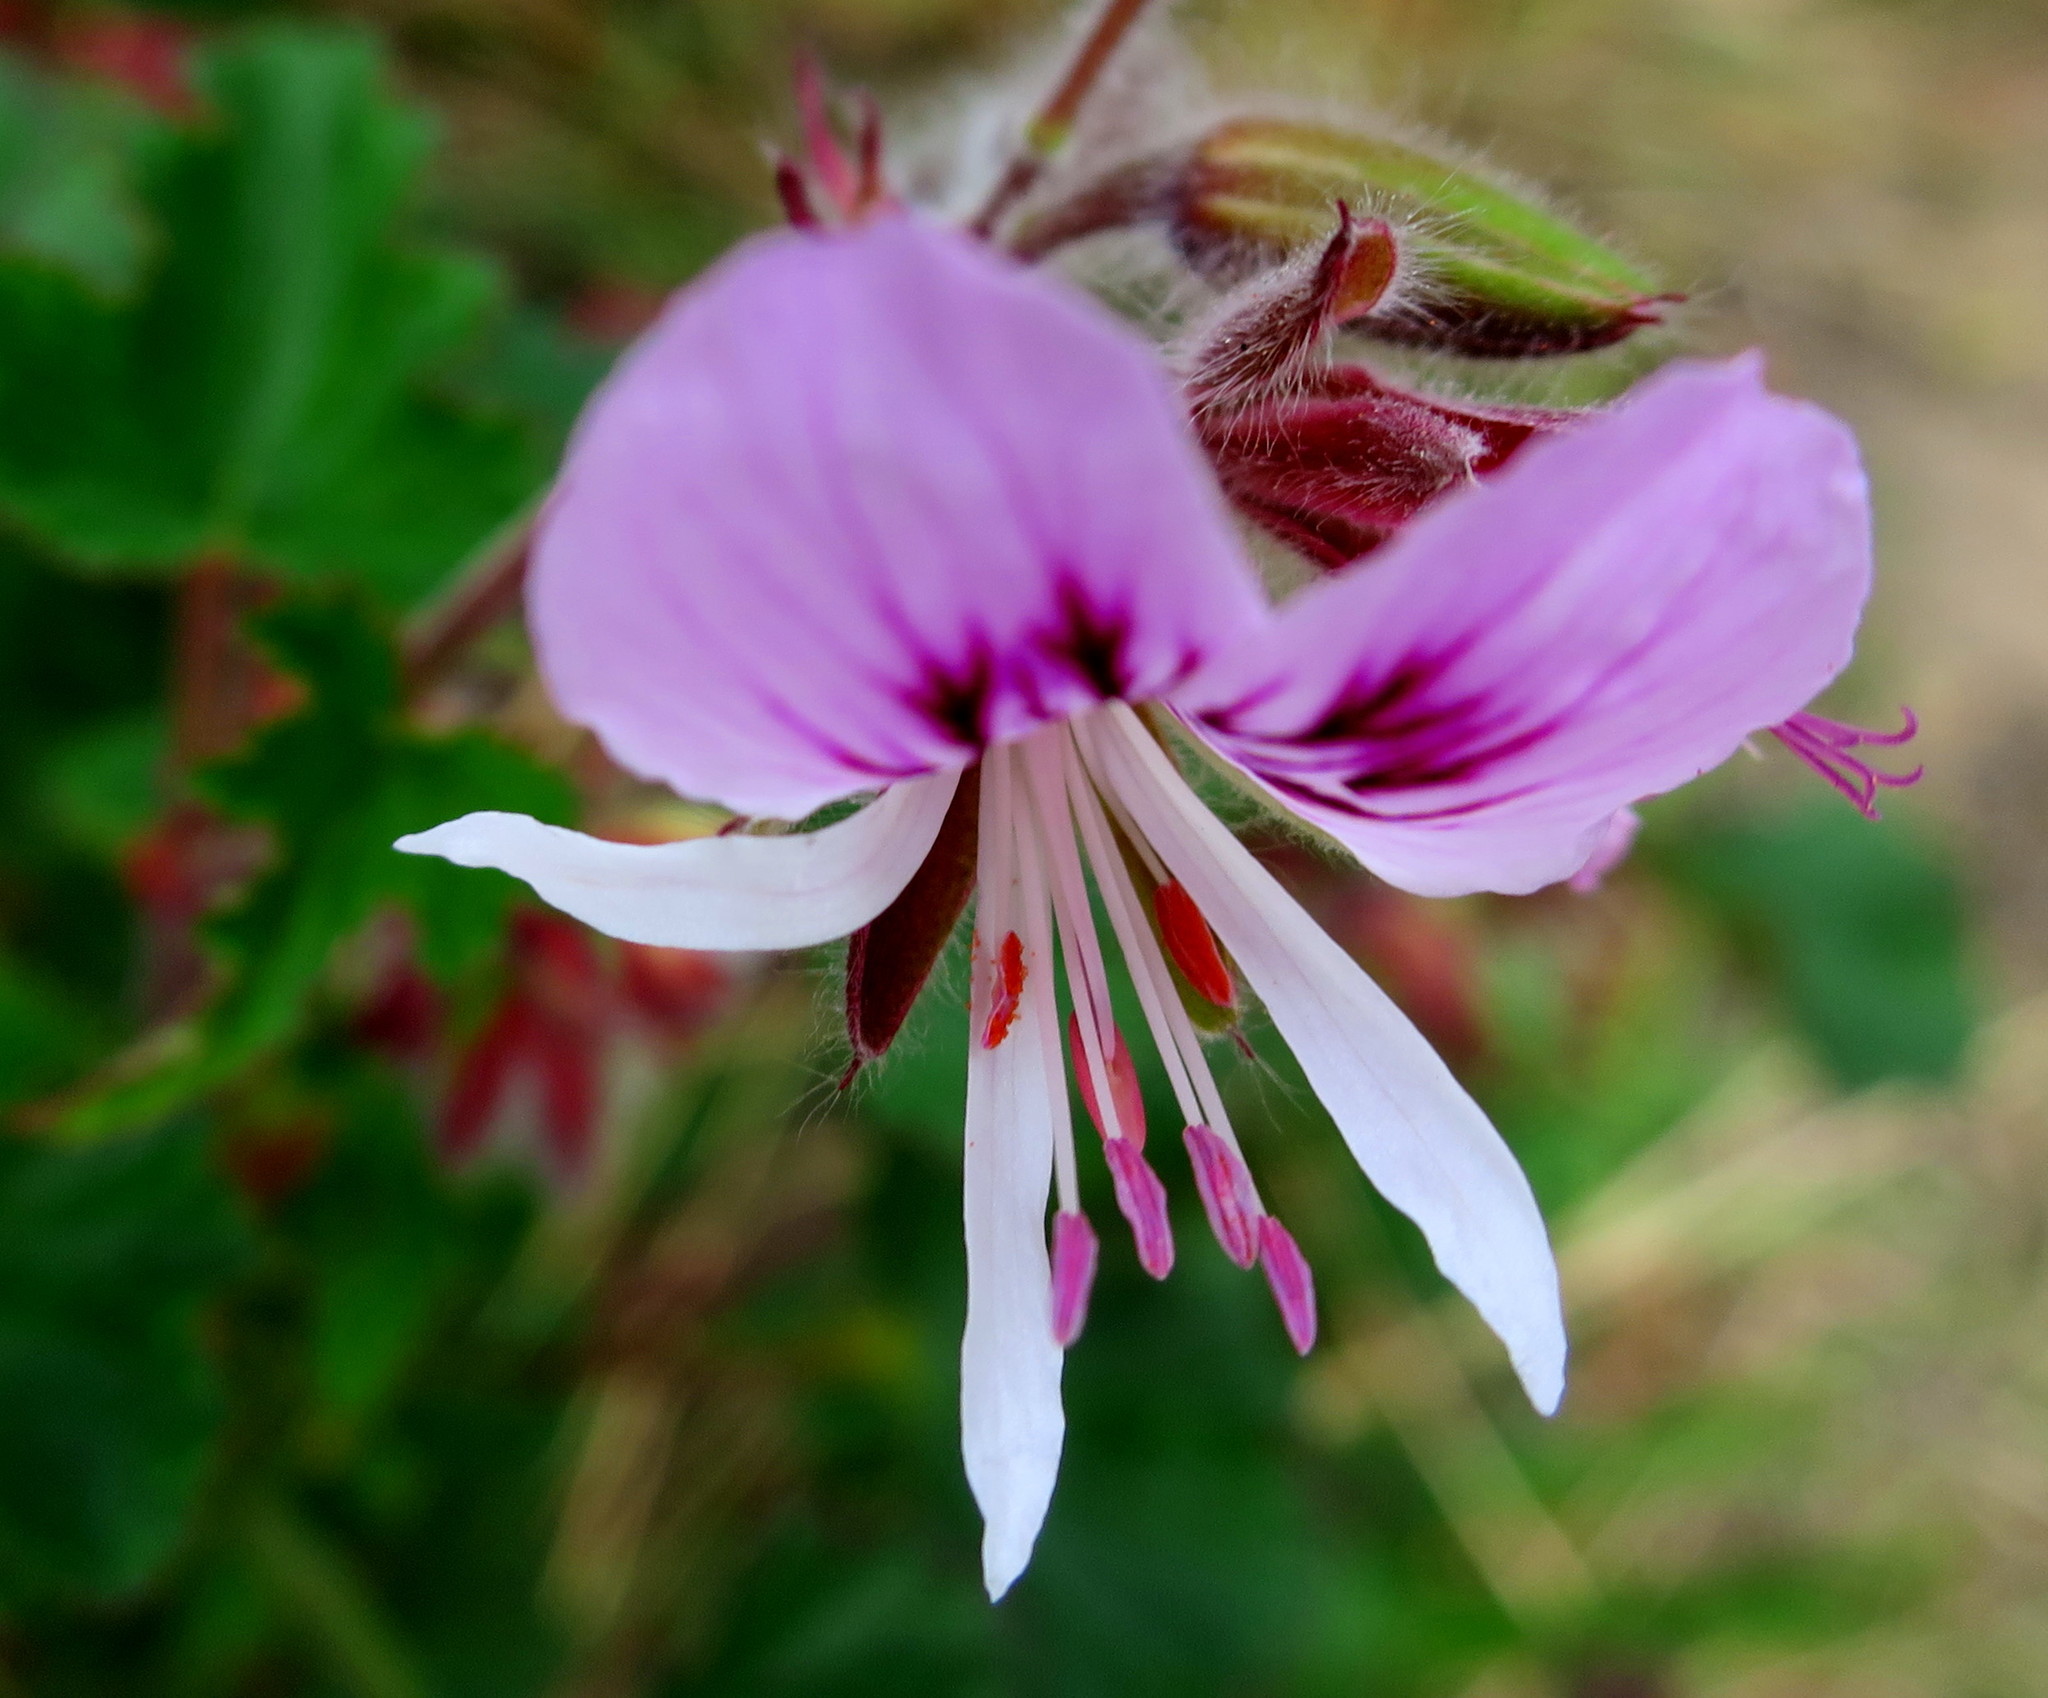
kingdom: Plantae
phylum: Tracheophyta
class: Magnoliopsida
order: Geraniales
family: Geraniaceae
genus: Pelargonium
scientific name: Pelargonium cordifolium
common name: Heart-leaf pelargonium
